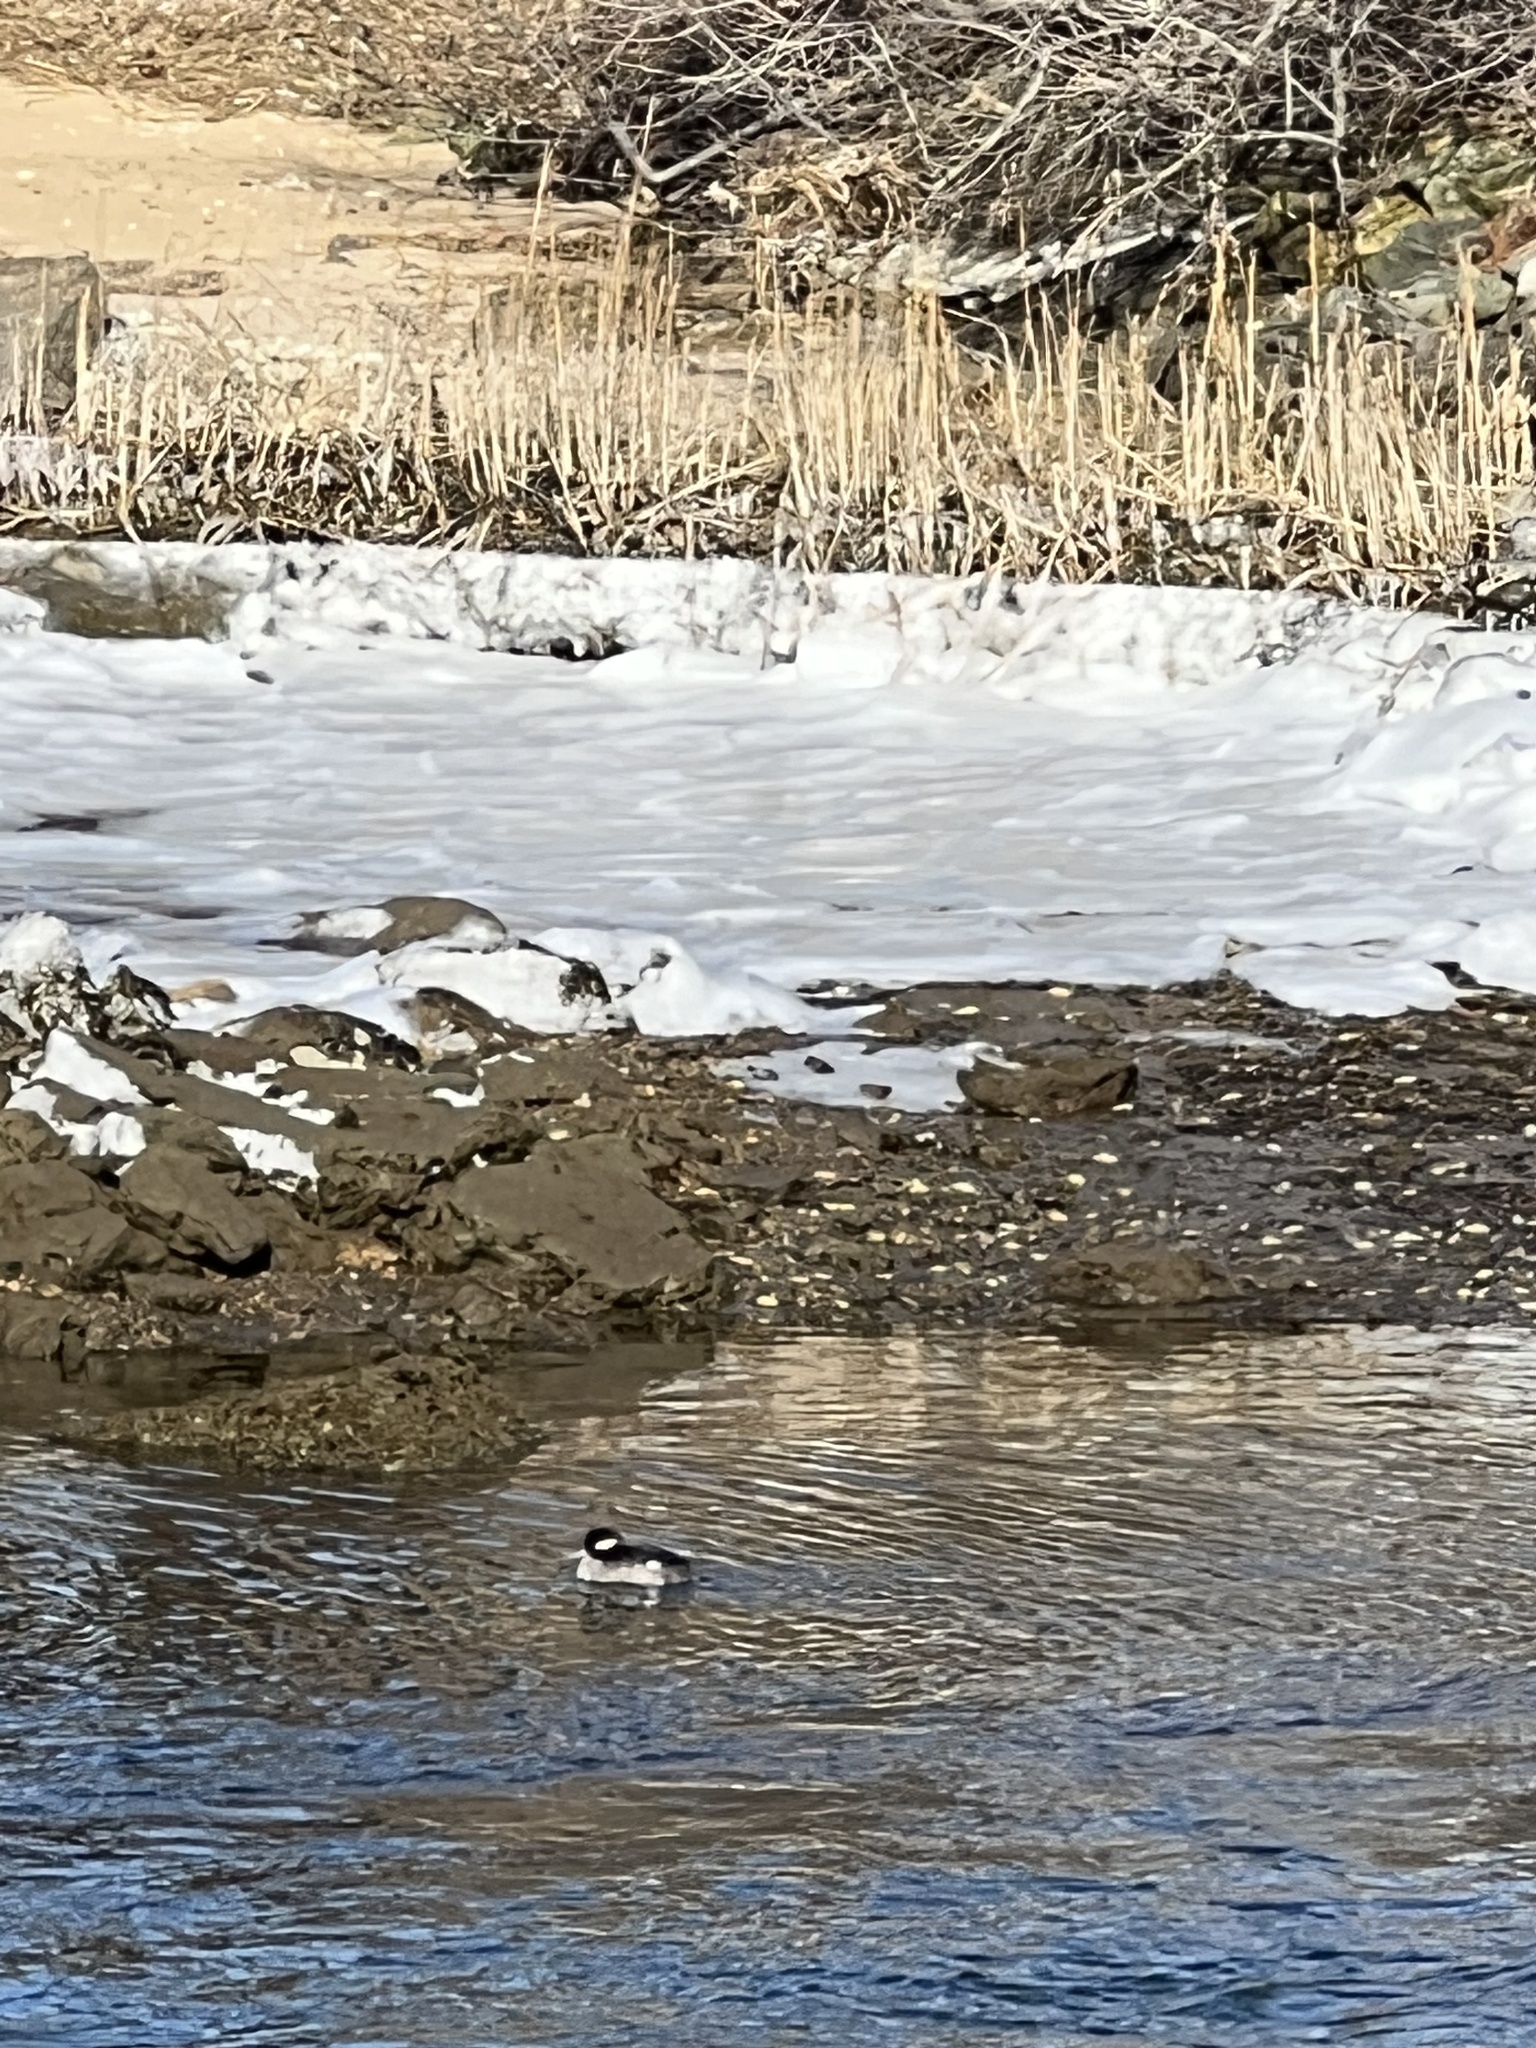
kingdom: Animalia
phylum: Chordata
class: Aves
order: Anseriformes
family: Anatidae
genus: Bucephala
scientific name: Bucephala albeola
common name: Bufflehead
